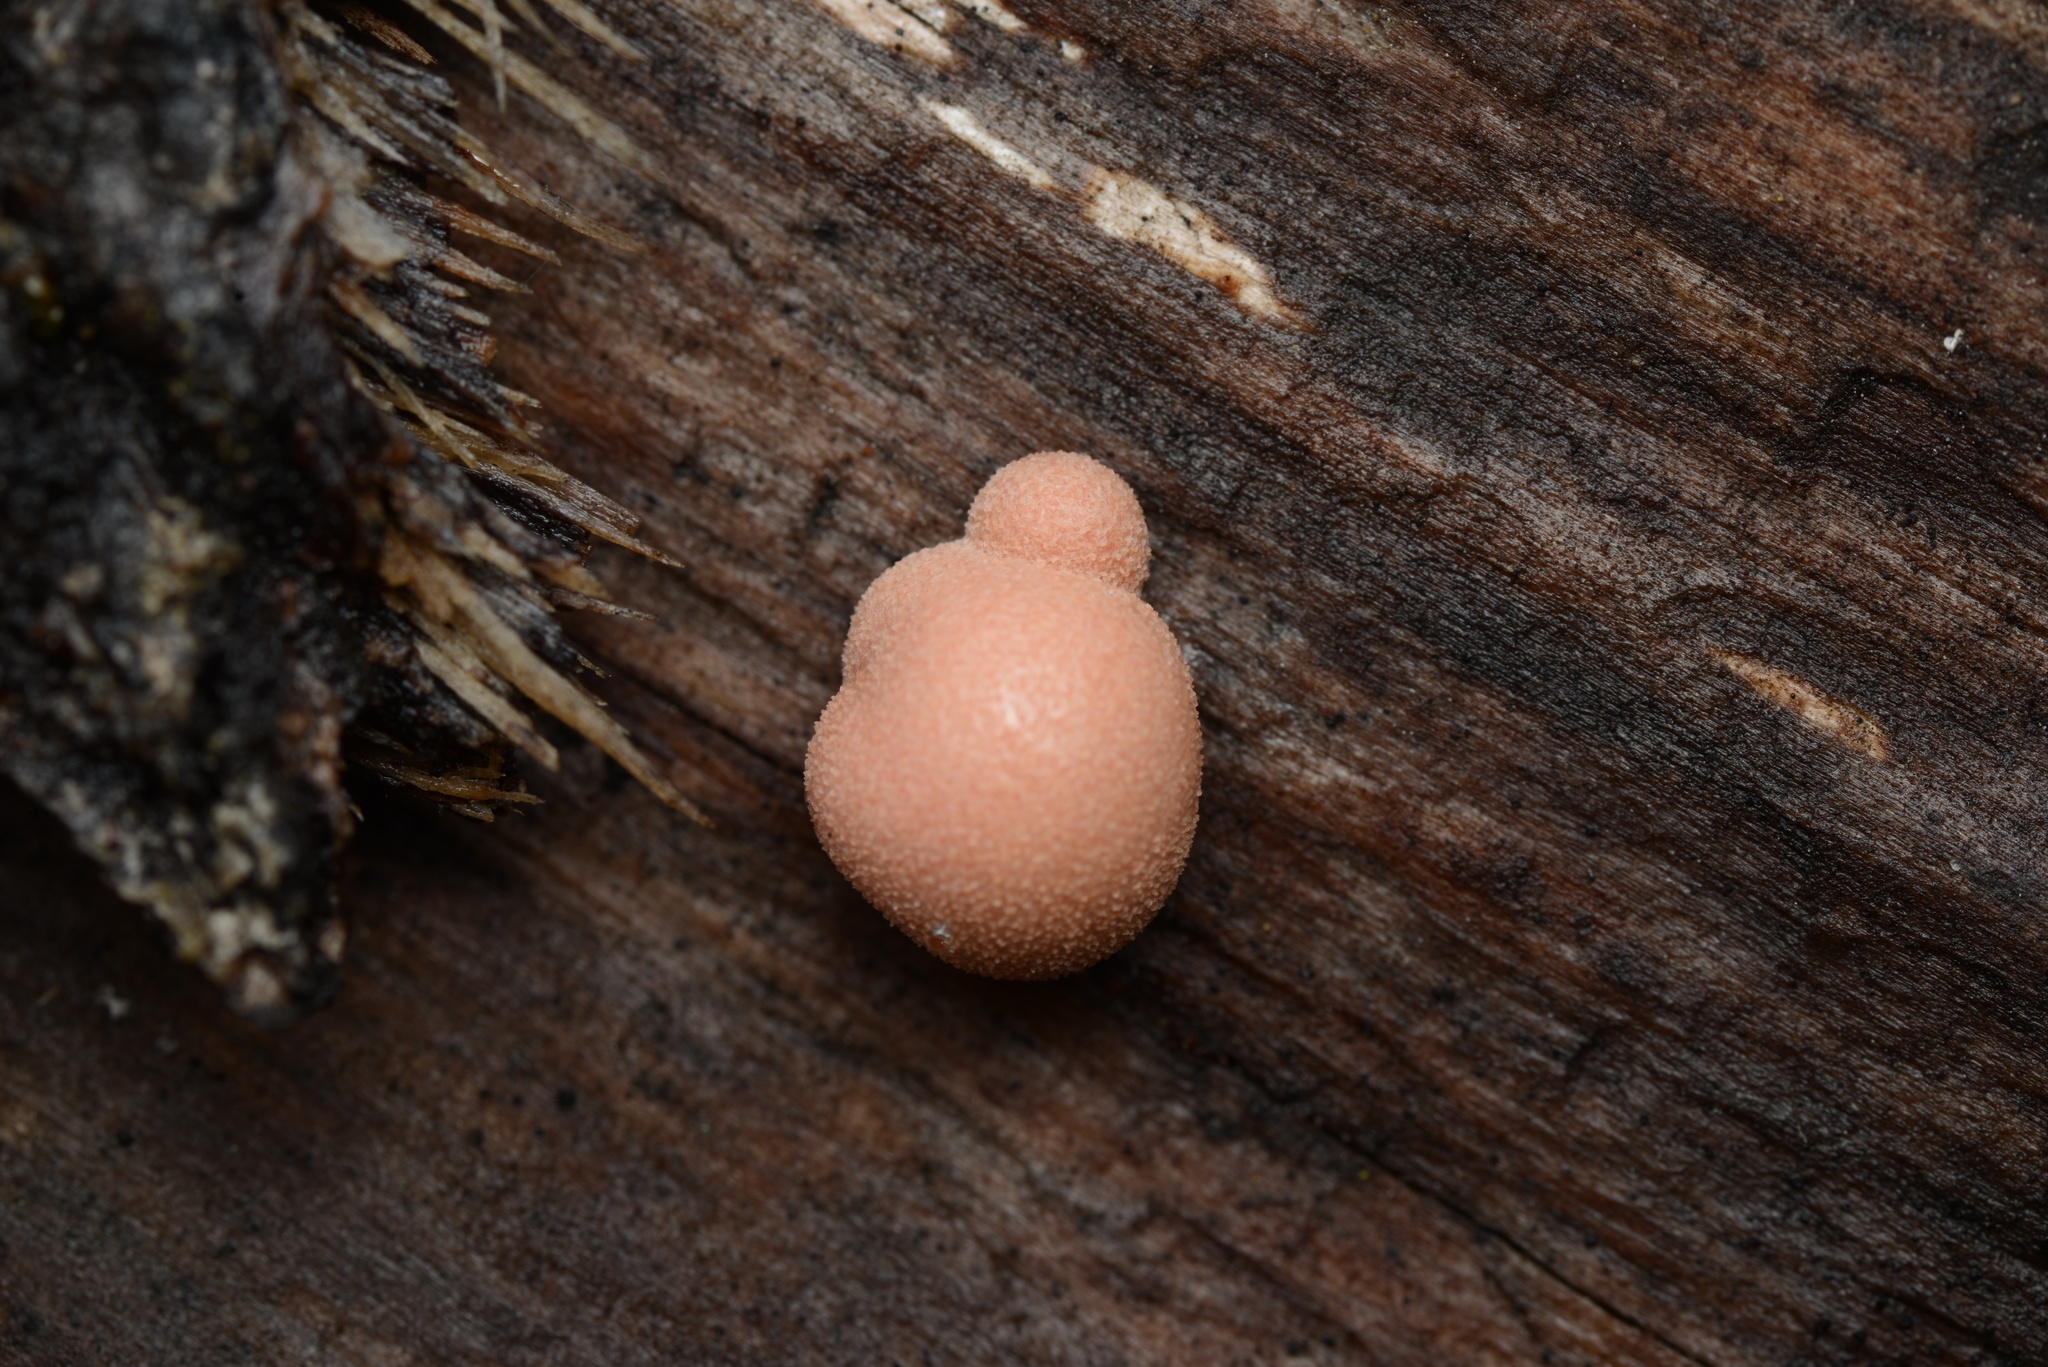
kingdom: Protozoa
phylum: Mycetozoa
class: Myxomycetes
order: Cribrariales
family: Tubiferaceae
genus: Lycogala
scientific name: Lycogala epidendrum
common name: Wolf's milk
